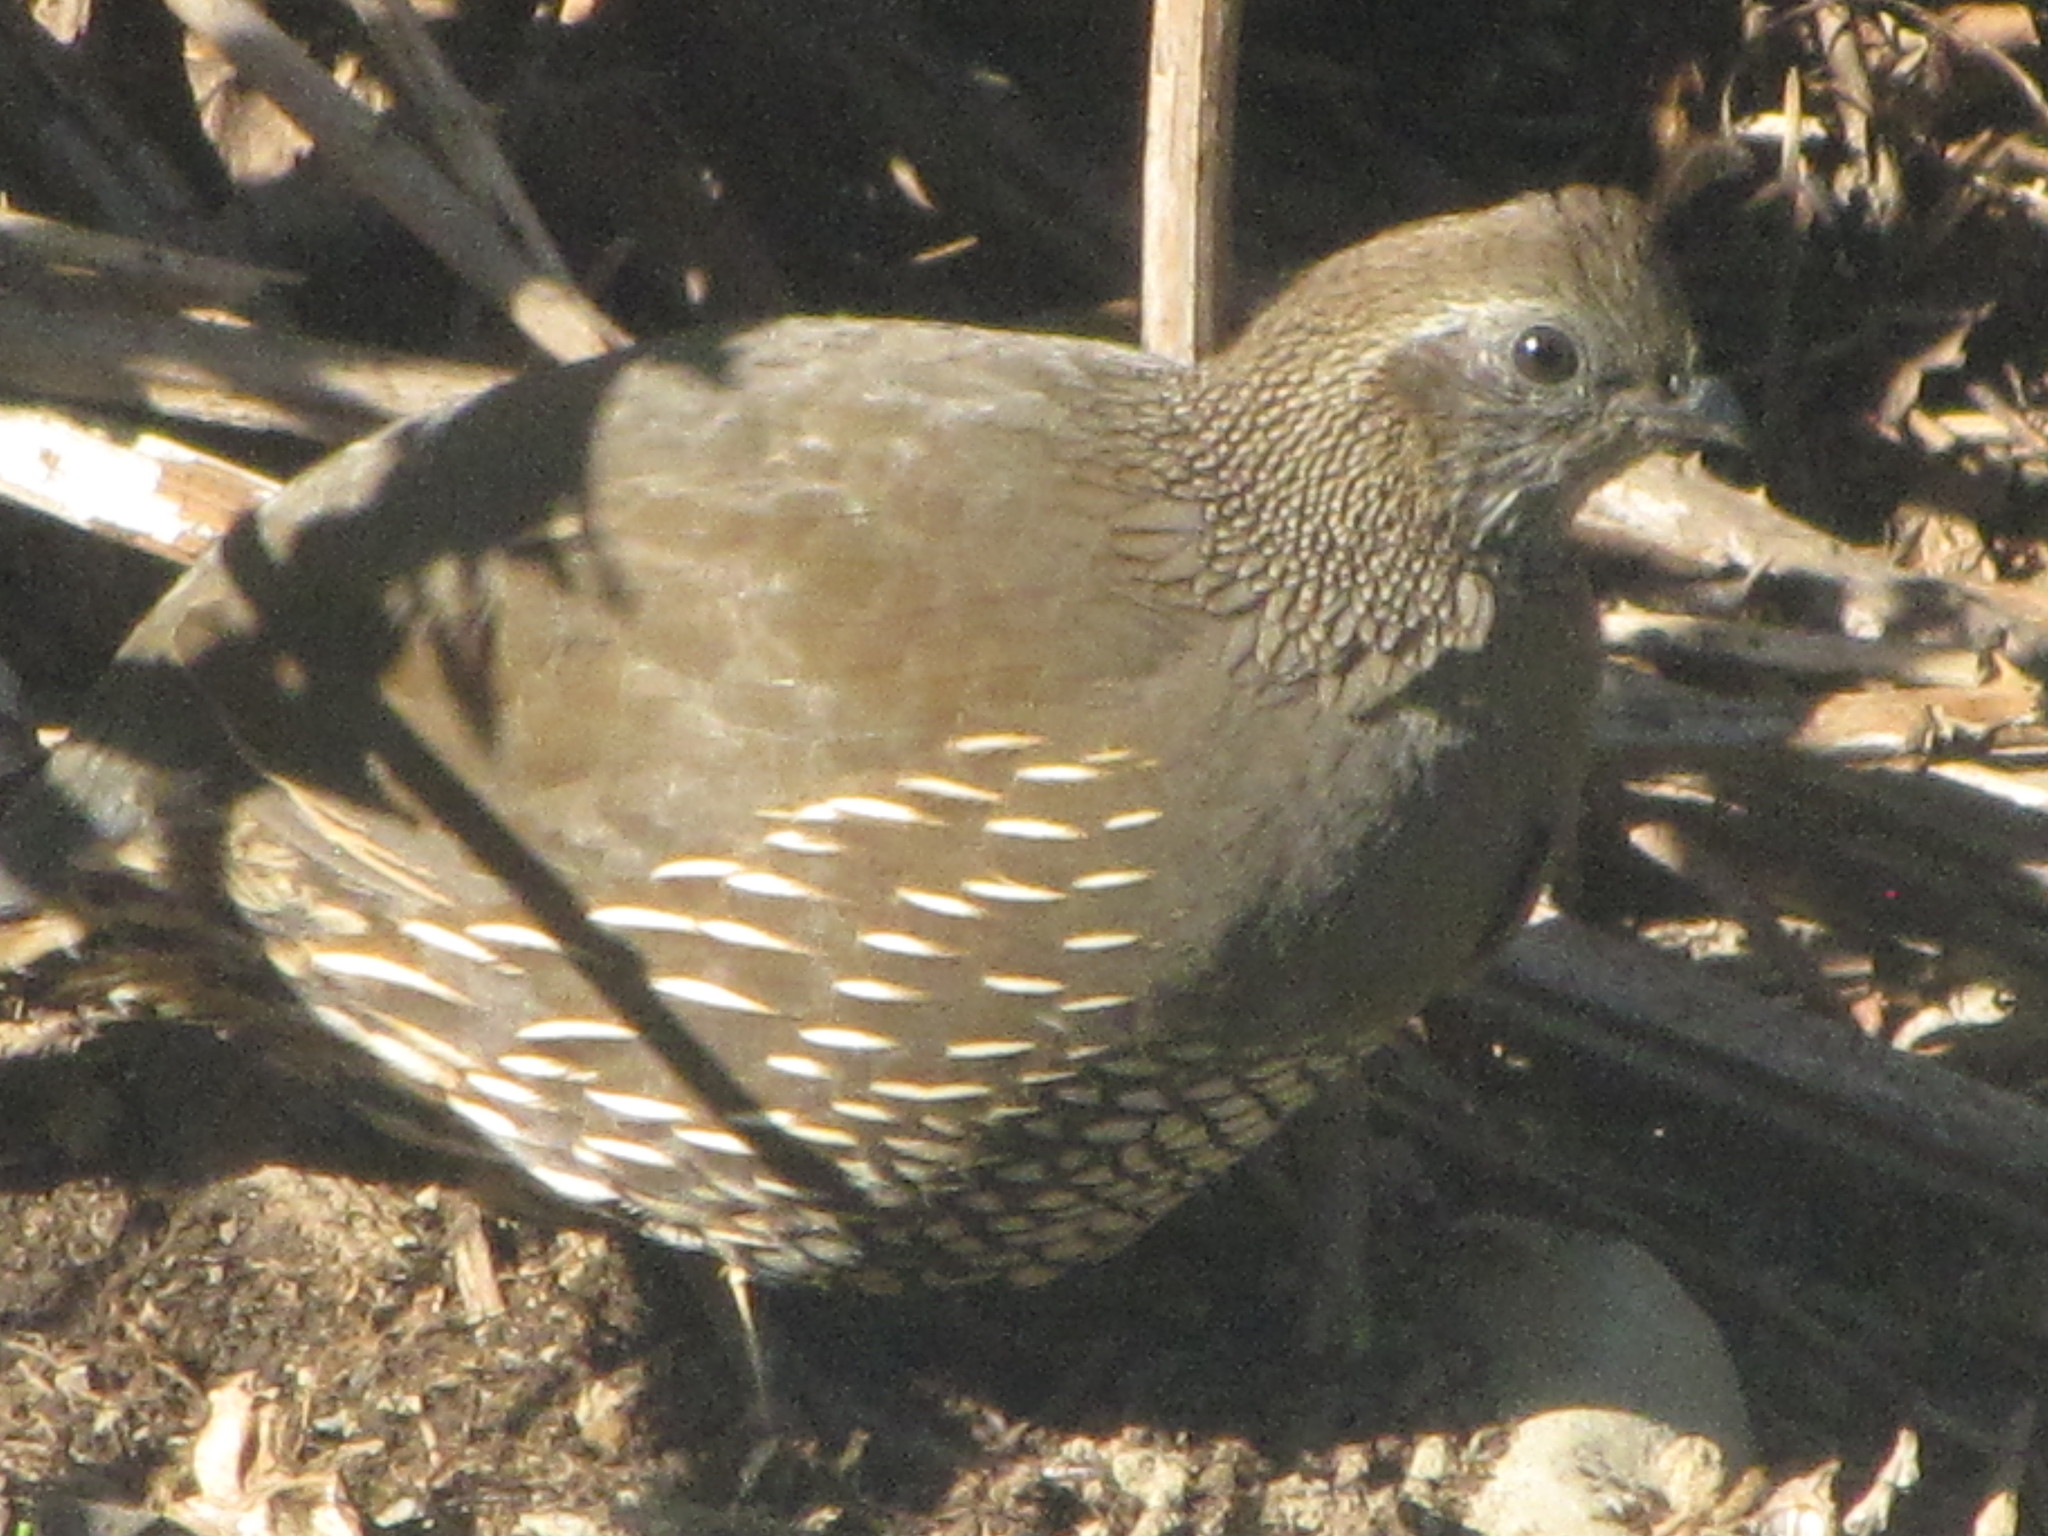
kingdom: Animalia
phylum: Chordata
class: Aves
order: Galliformes
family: Odontophoridae
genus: Callipepla
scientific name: Callipepla californica
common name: California quail
